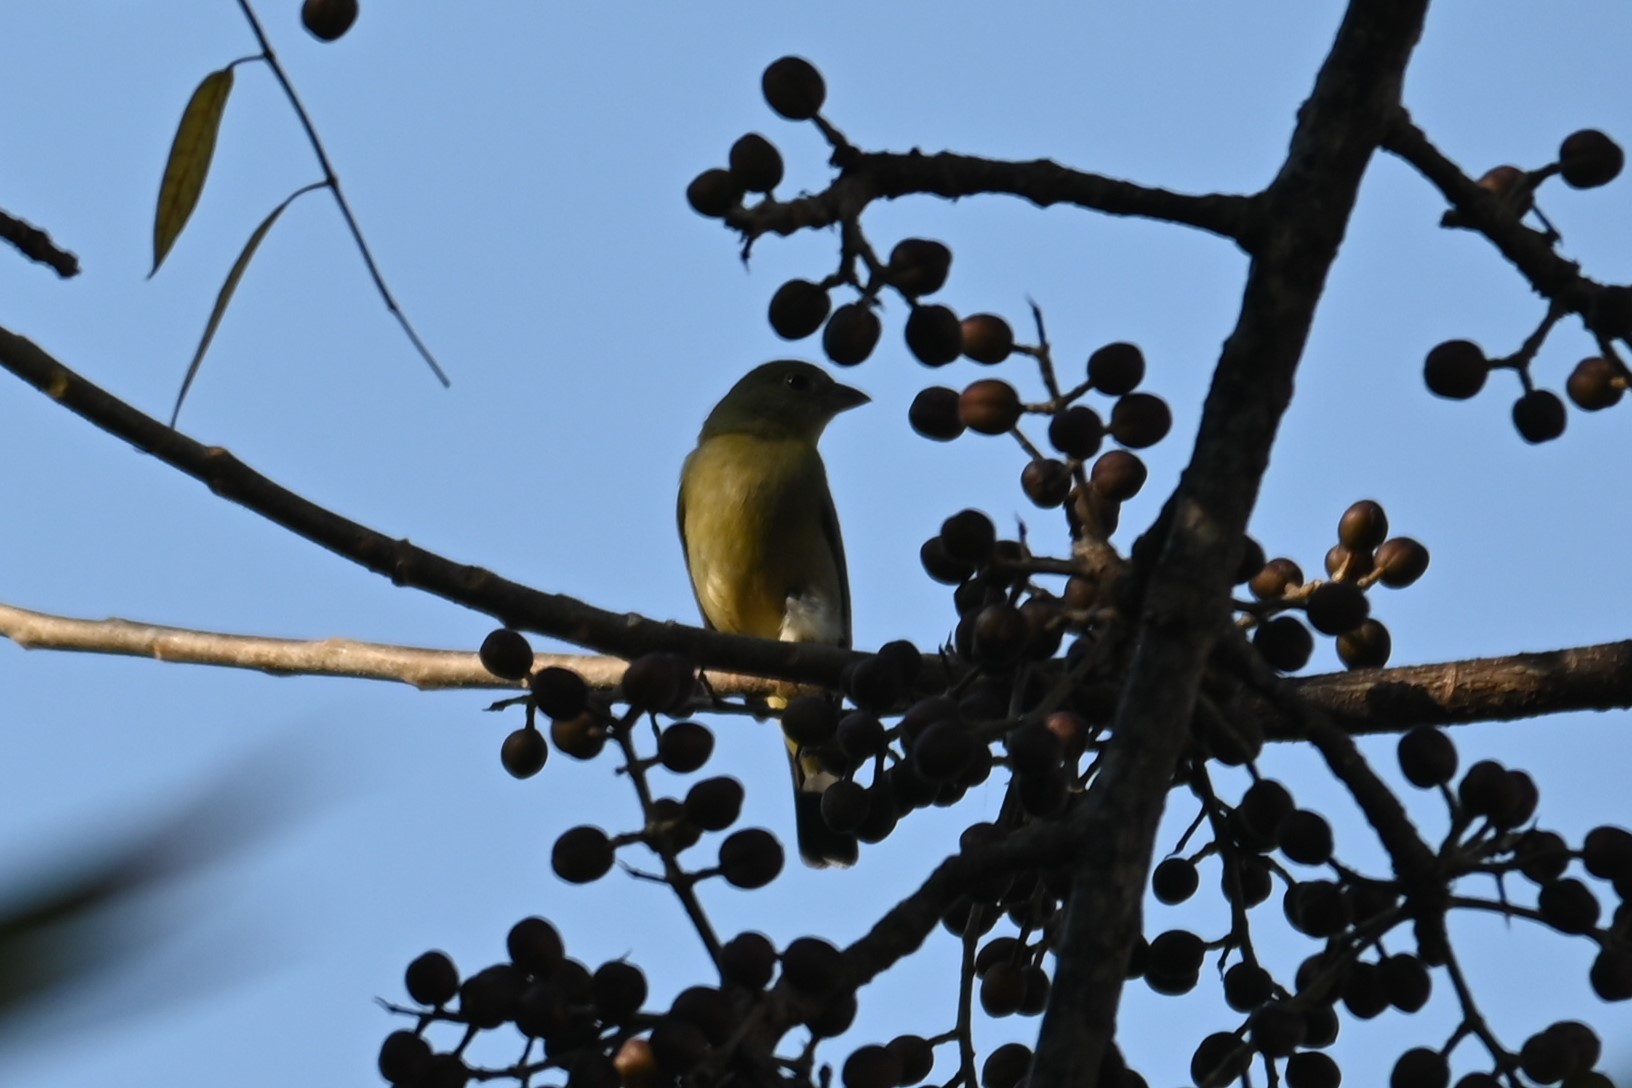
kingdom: Animalia
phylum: Chordata
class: Aves
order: Passeriformes
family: Cardinalidae
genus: Passerina
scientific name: Passerina ciris
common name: Painted bunting
